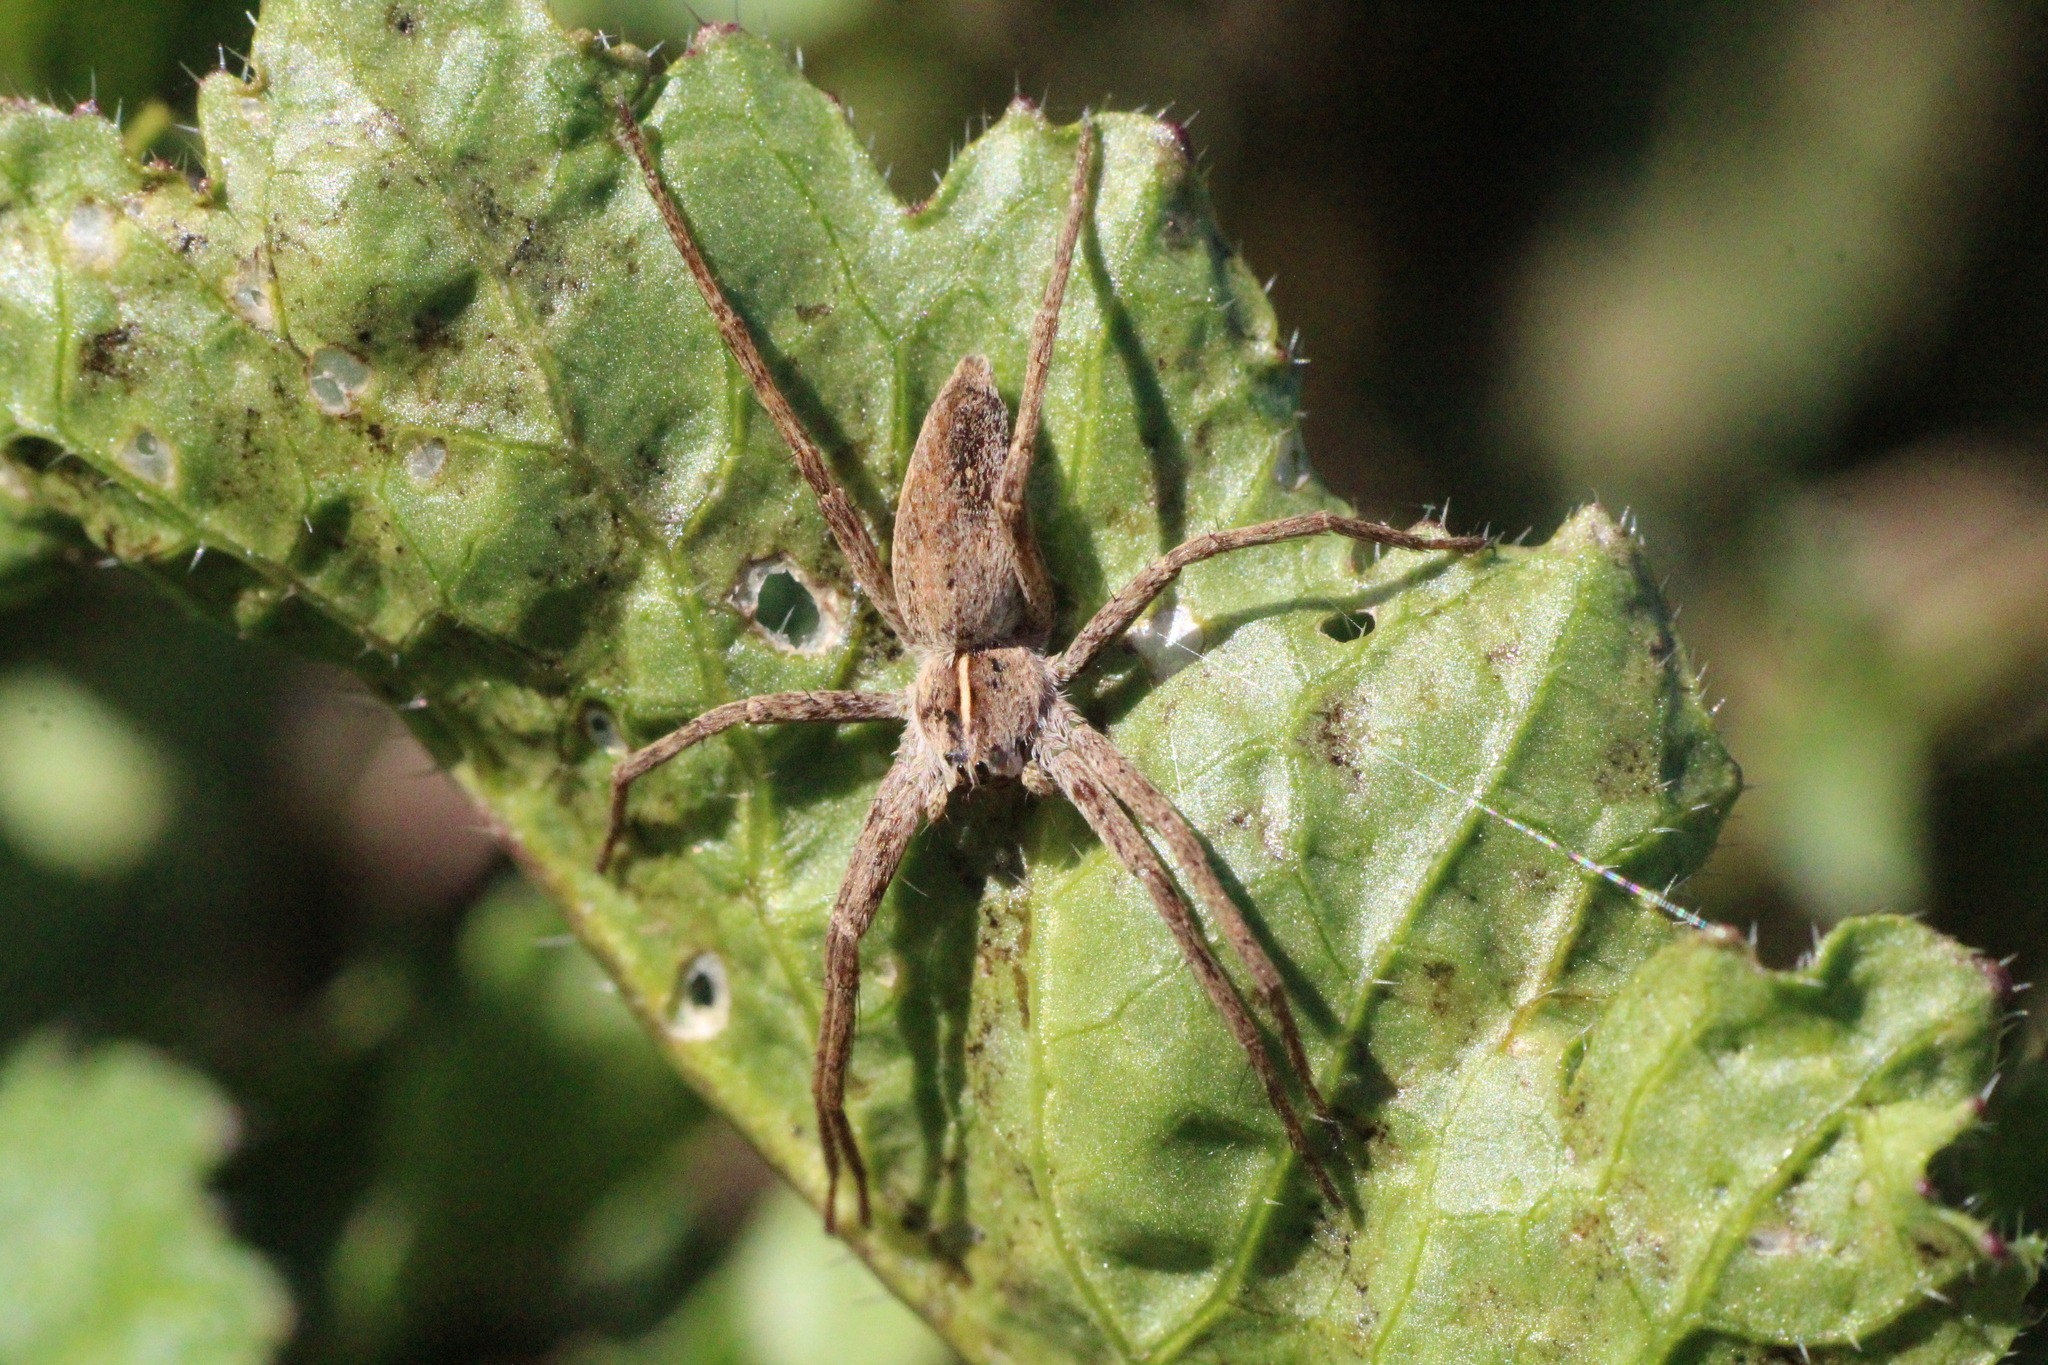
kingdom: Animalia
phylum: Arthropoda
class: Arachnida
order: Araneae
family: Pisauridae
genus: Pisaura
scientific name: Pisaura mirabilis
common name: Tent spider
